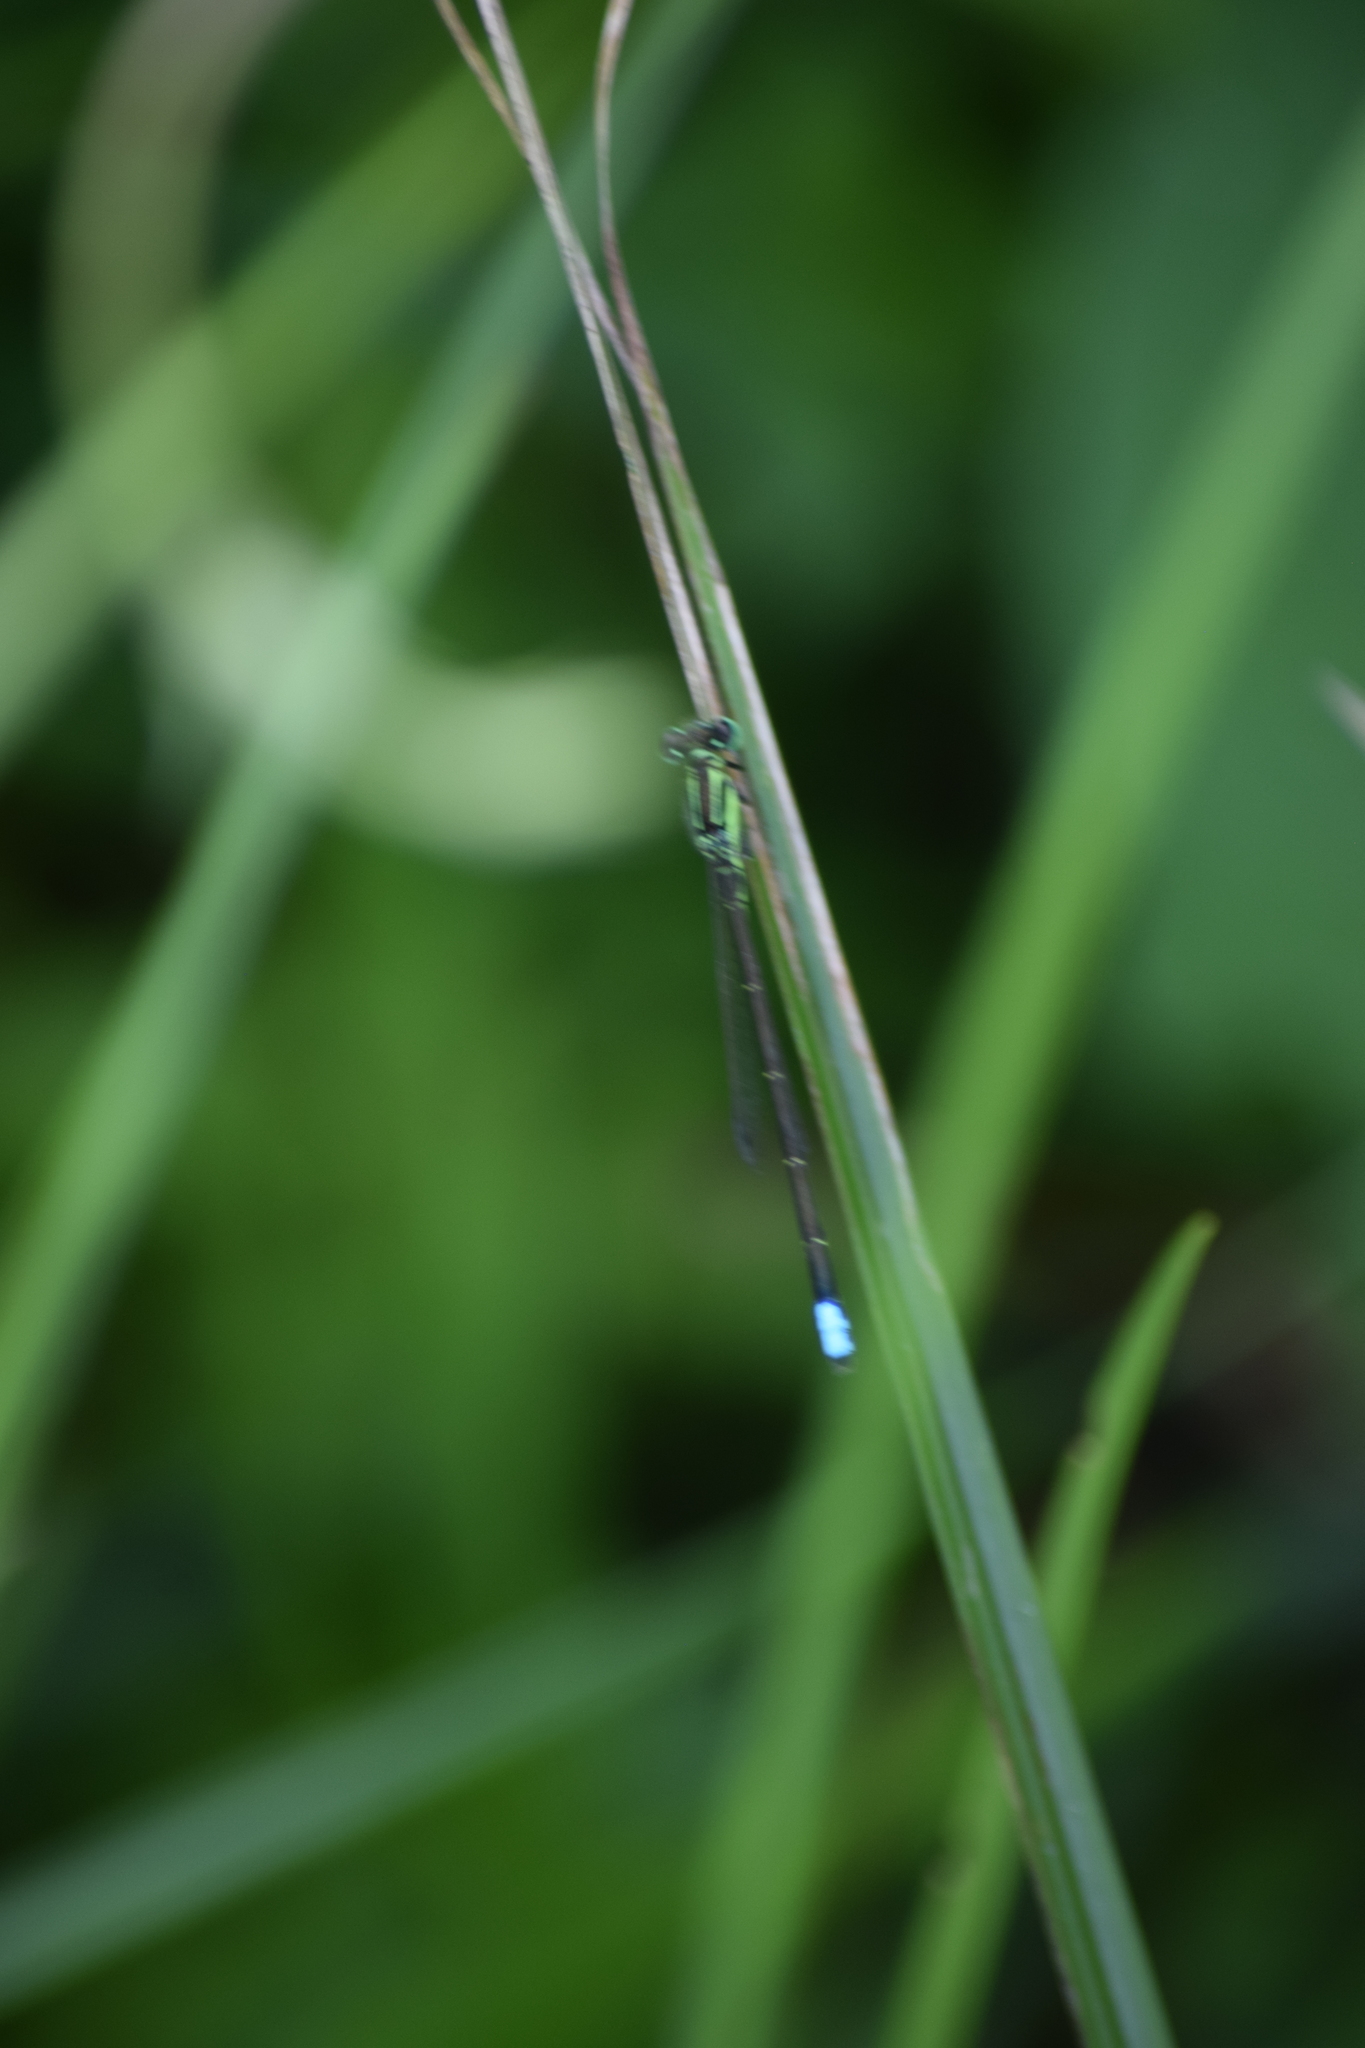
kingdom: Animalia
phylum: Arthropoda
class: Insecta
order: Odonata
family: Coenagrionidae
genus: Ischnura
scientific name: Ischnura verticalis
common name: Eastern forktail
